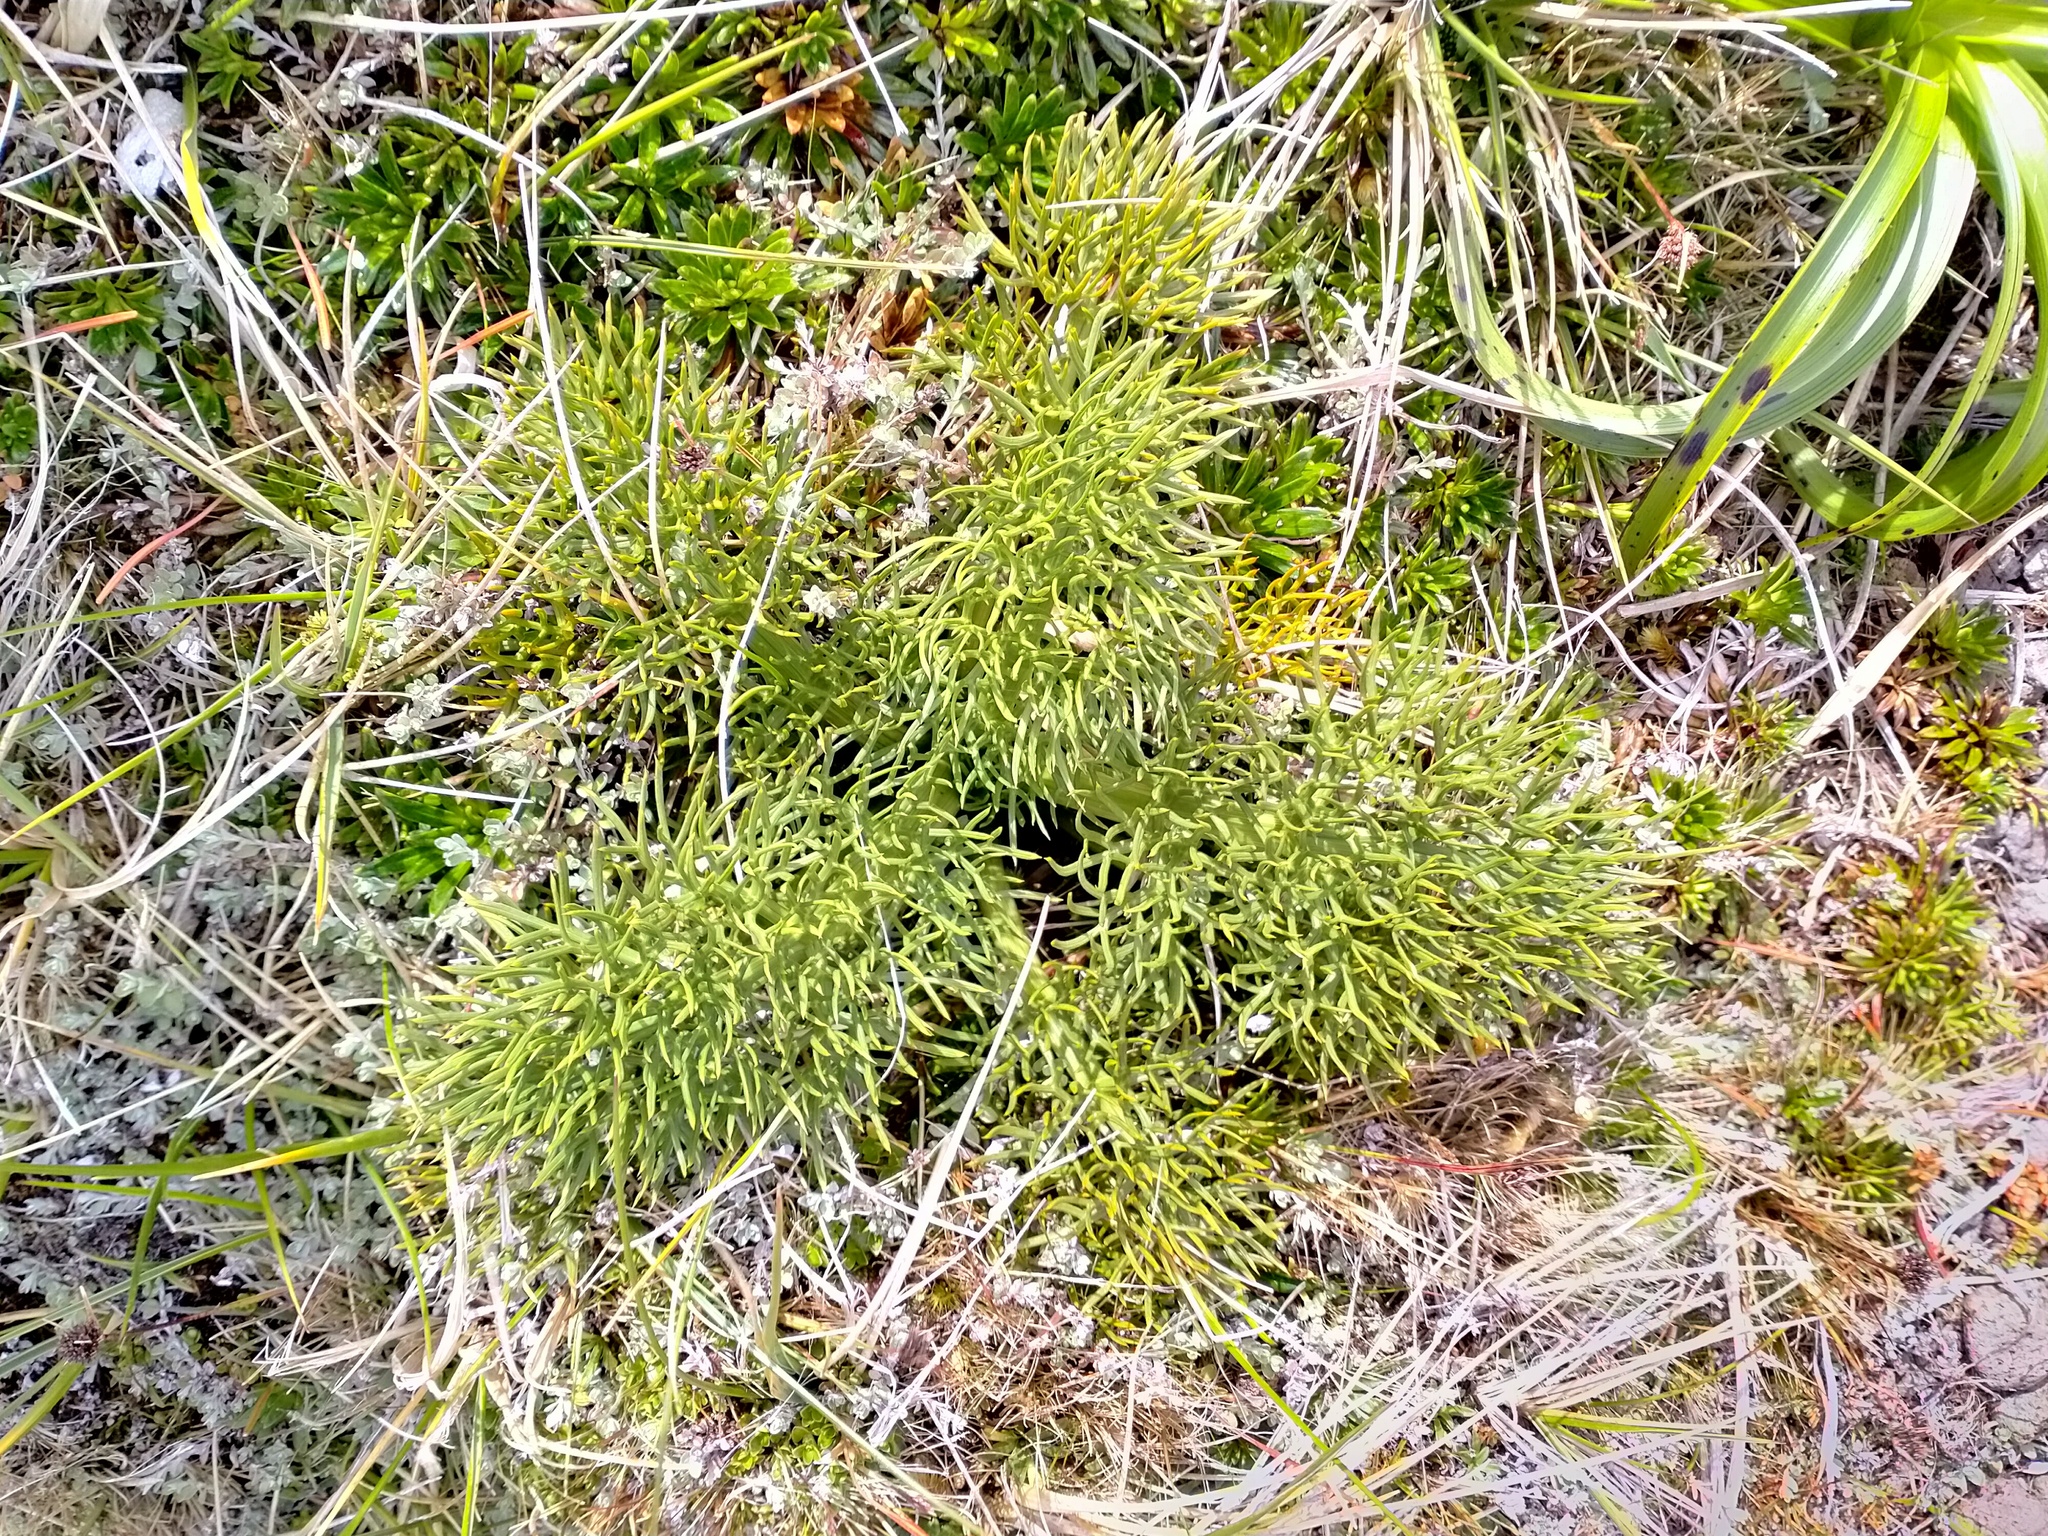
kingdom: Plantae
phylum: Tracheophyta
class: Magnoliopsida
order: Apiales
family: Apiaceae
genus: Anisotome
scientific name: Anisotome antipoda
